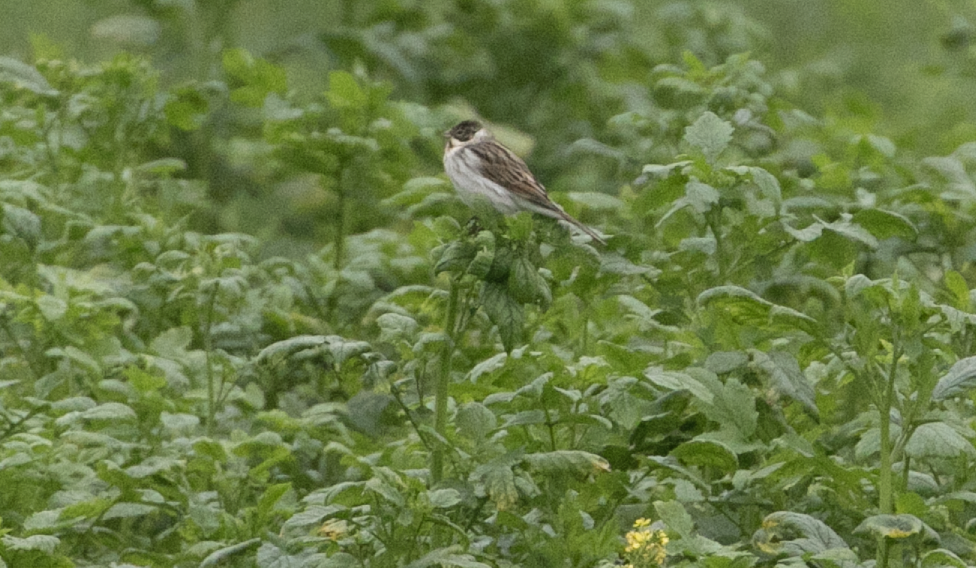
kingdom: Animalia
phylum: Chordata
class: Aves
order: Passeriformes
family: Emberizidae
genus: Emberiza
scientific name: Emberiza schoeniclus
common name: Reed bunting
